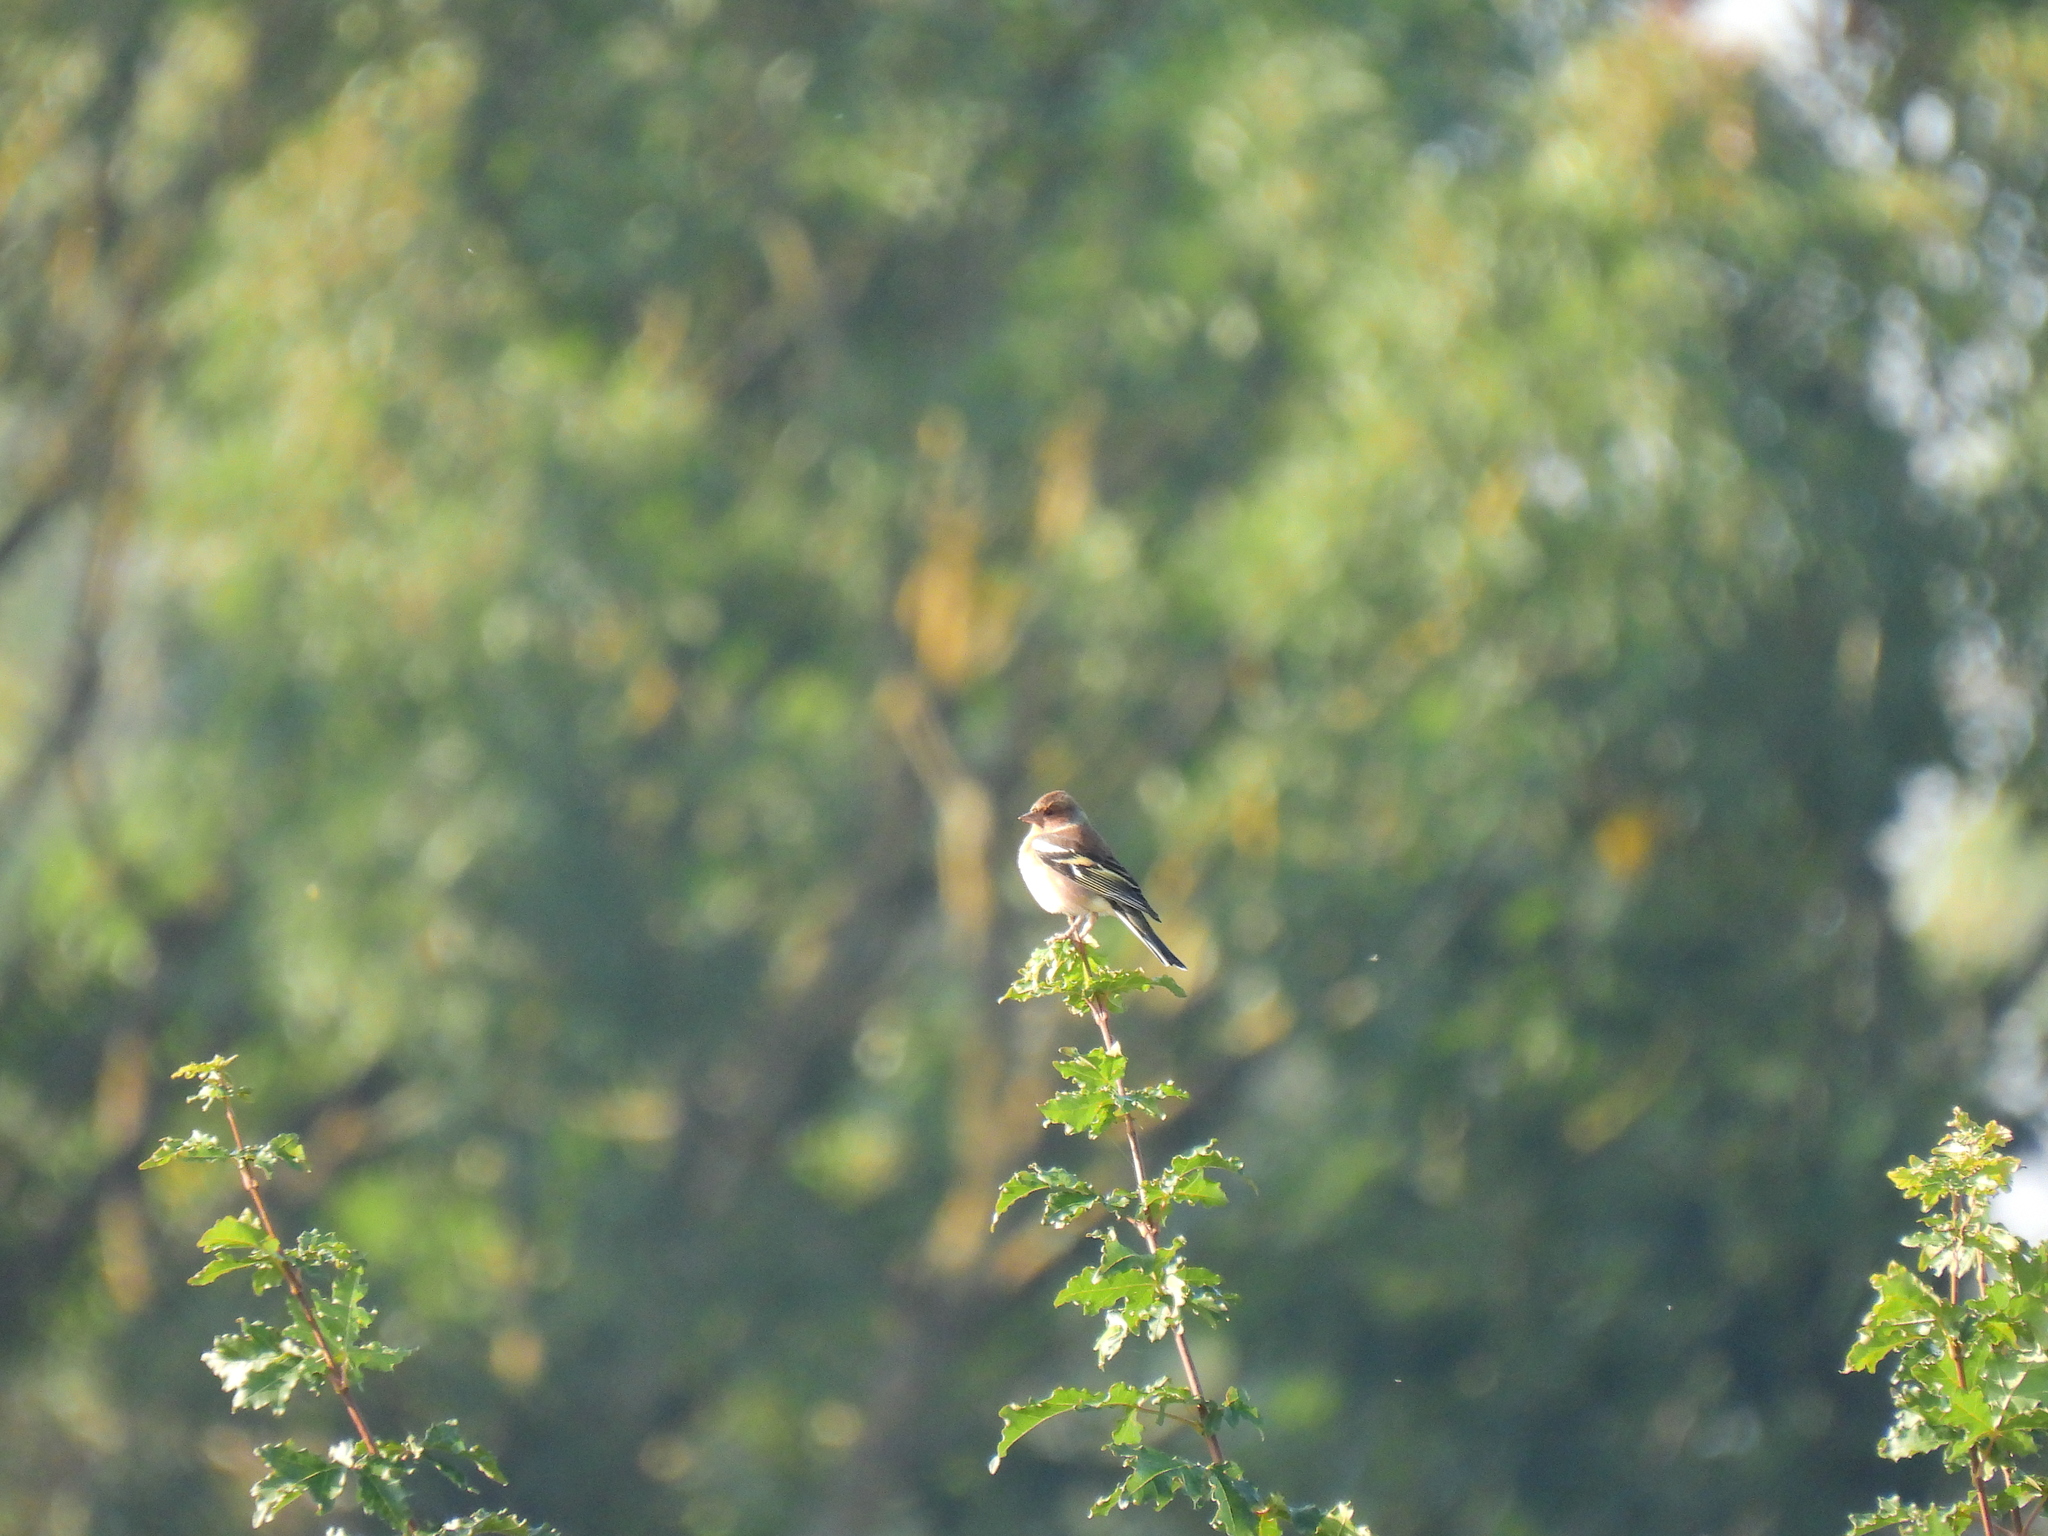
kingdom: Animalia
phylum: Chordata
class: Aves
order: Passeriformes
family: Fringillidae
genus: Fringilla
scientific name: Fringilla coelebs
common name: Common chaffinch
